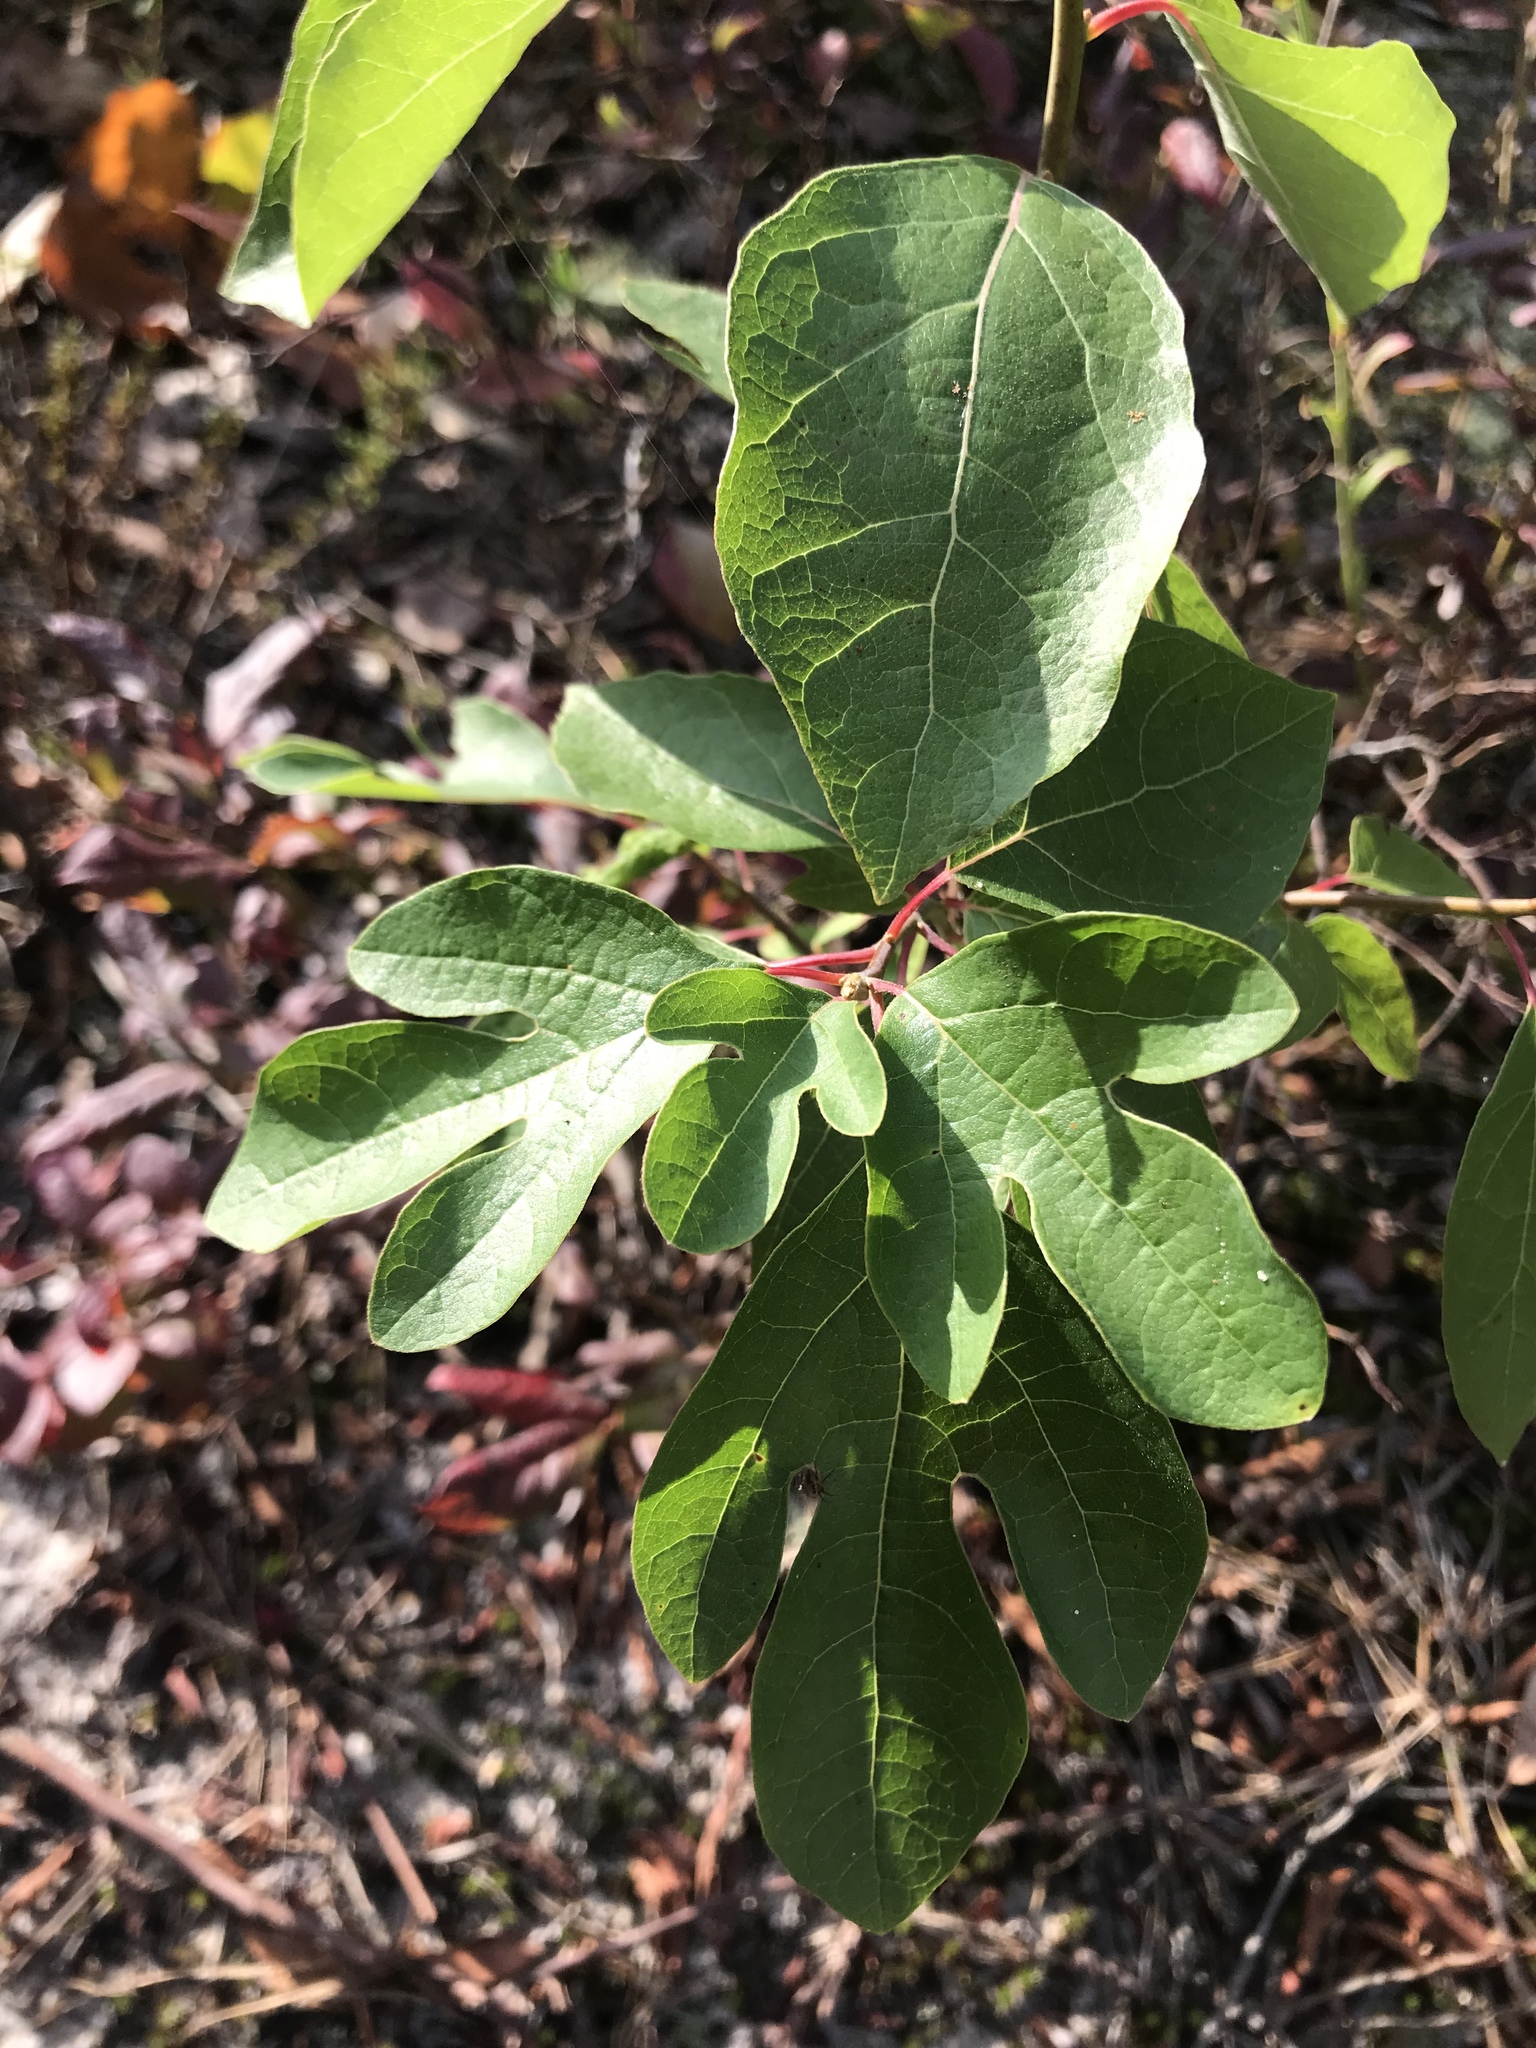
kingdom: Plantae
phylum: Tracheophyta
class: Magnoliopsida
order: Laurales
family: Lauraceae
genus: Sassafras
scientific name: Sassafras albidum
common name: Sassafras
